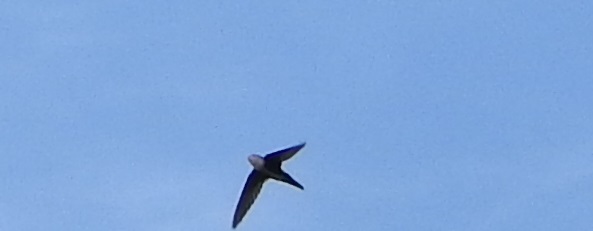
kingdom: Animalia
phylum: Chordata
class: Aves
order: Apodiformes
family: Apodidae
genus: Aeronautes
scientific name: Aeronautes saxatalis
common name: White-throated swift
